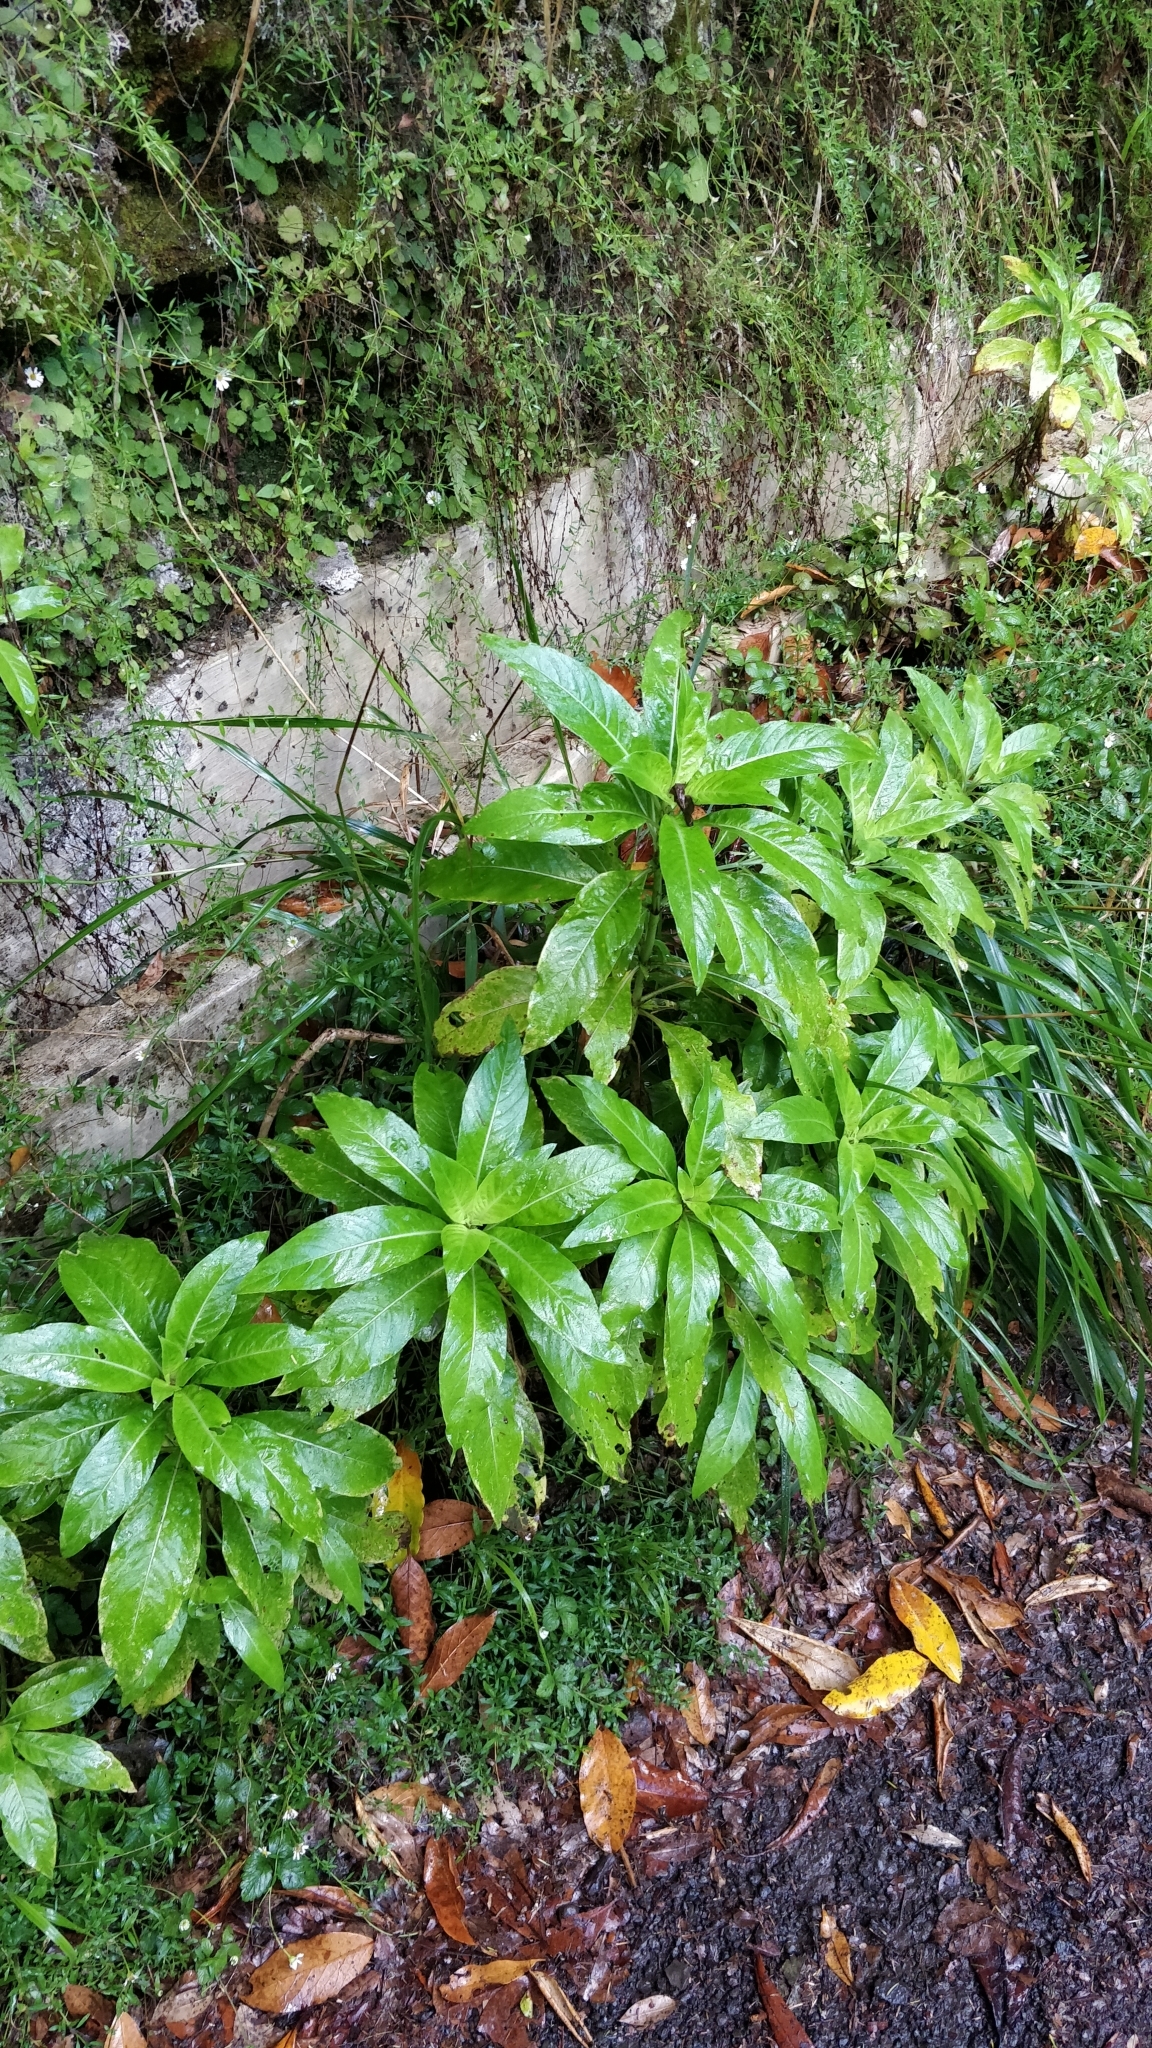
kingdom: Plantae
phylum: Tracheophyta
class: Magnoliopsida
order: Gentianales
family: Rubiaceae
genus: Phyllis
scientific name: Phyllis nobla
